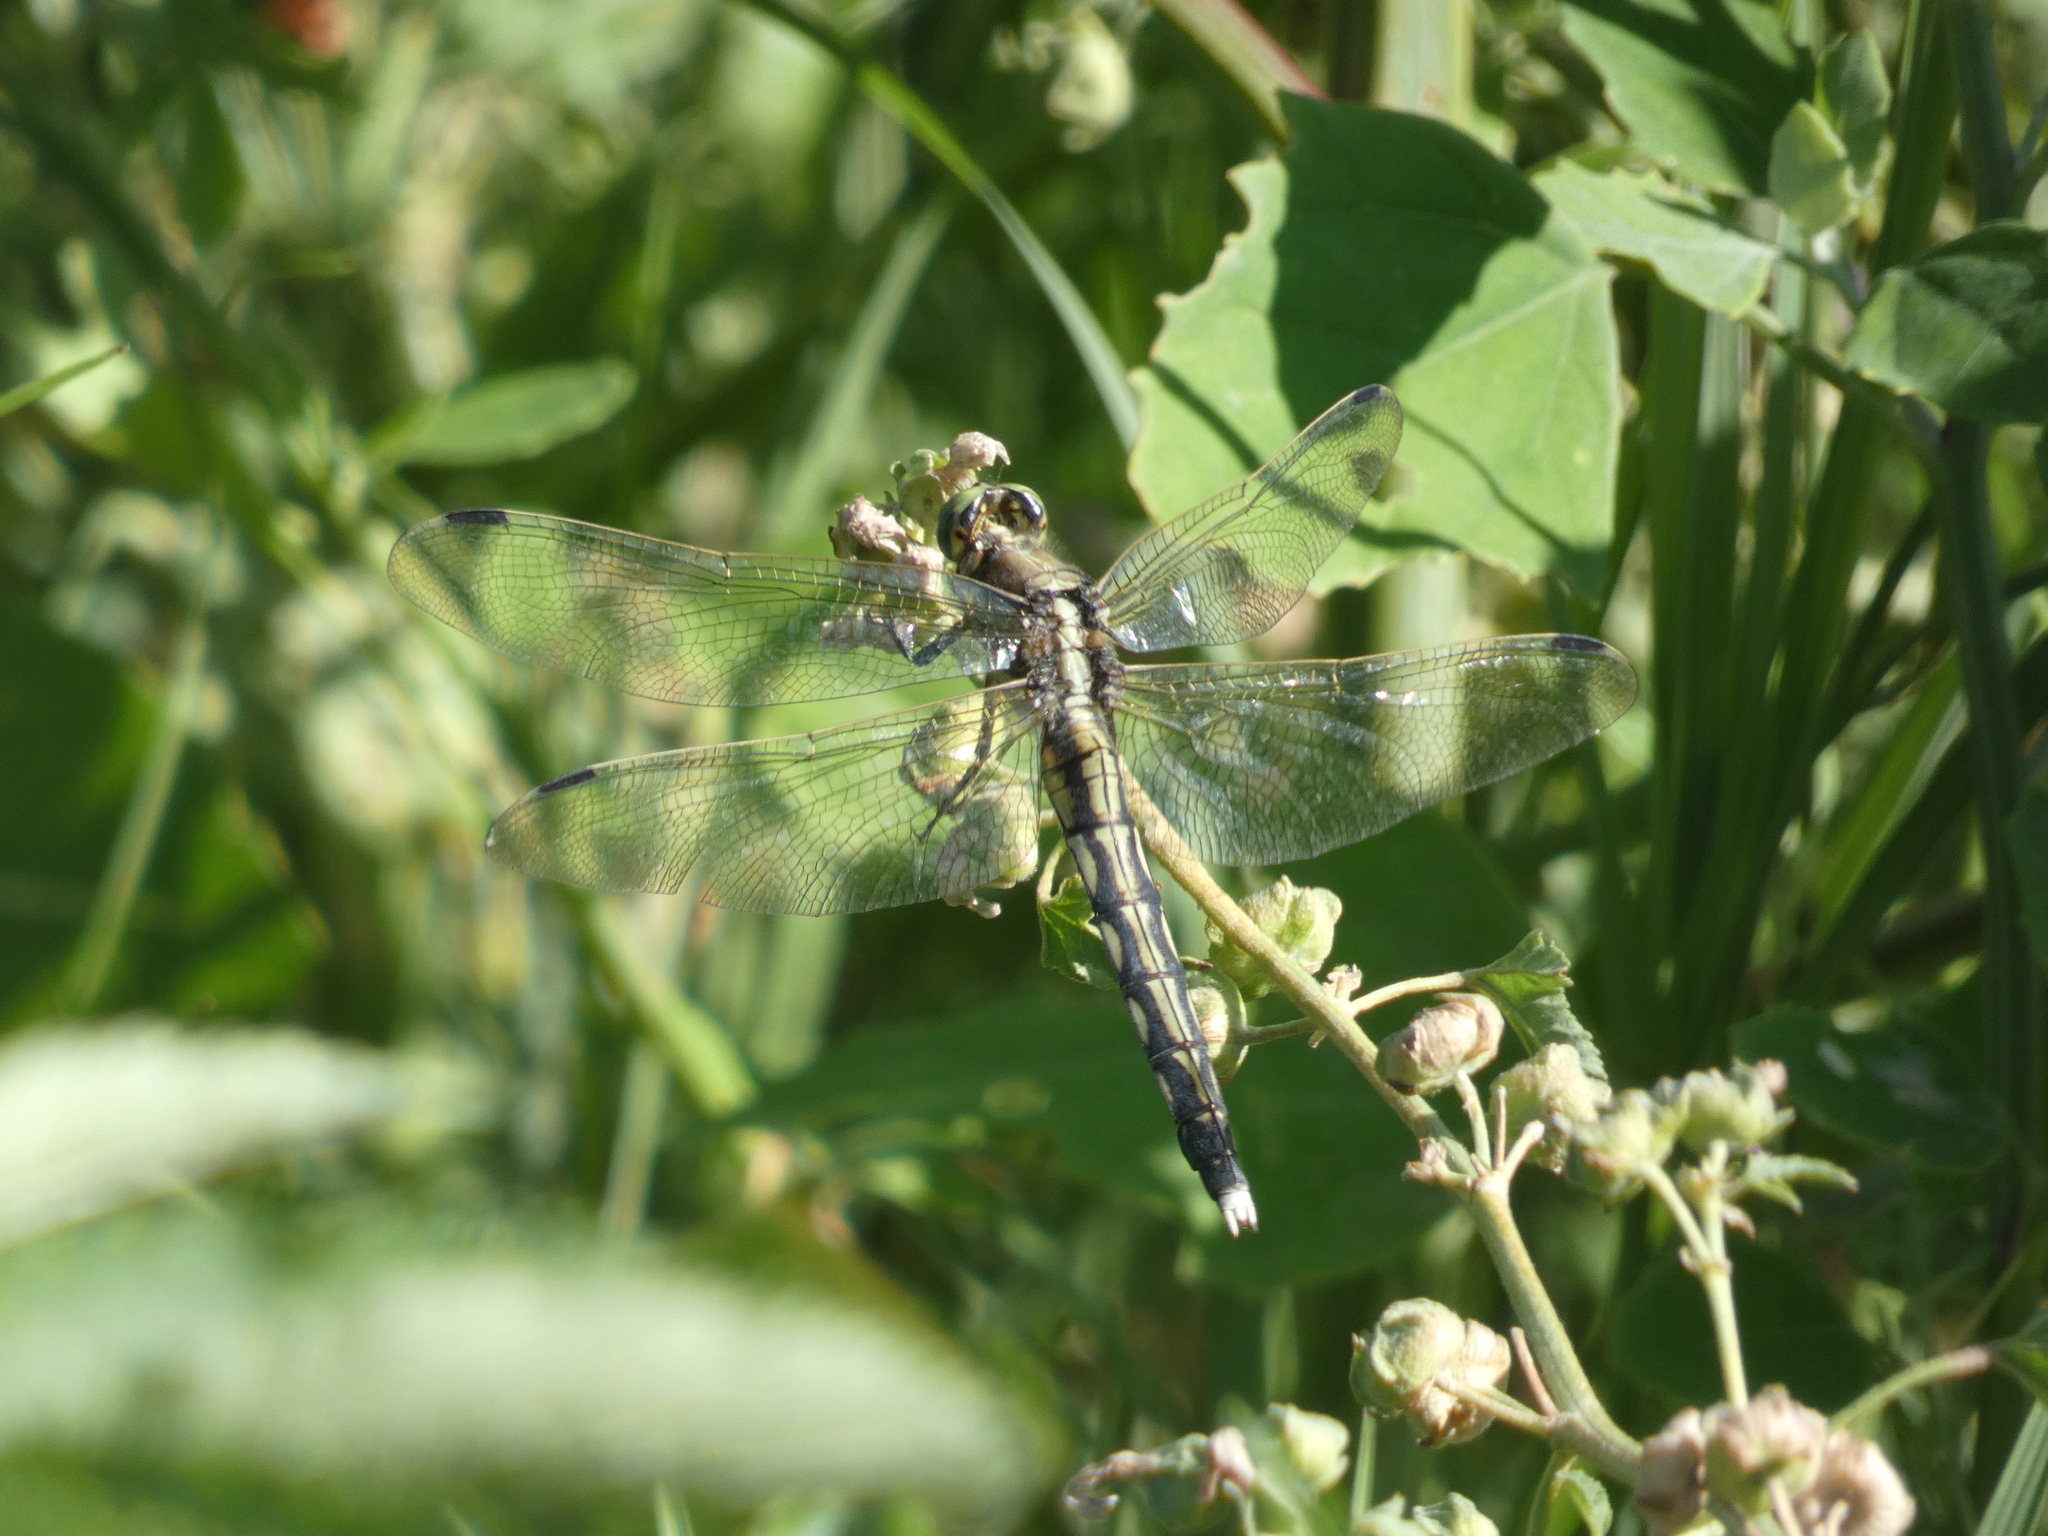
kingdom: Animalia
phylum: Arthropoda
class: Insecta
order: Odonata
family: Libellulidae
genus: Orthetrum
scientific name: Orthetrum albistylum
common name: White-tailed skimmer
